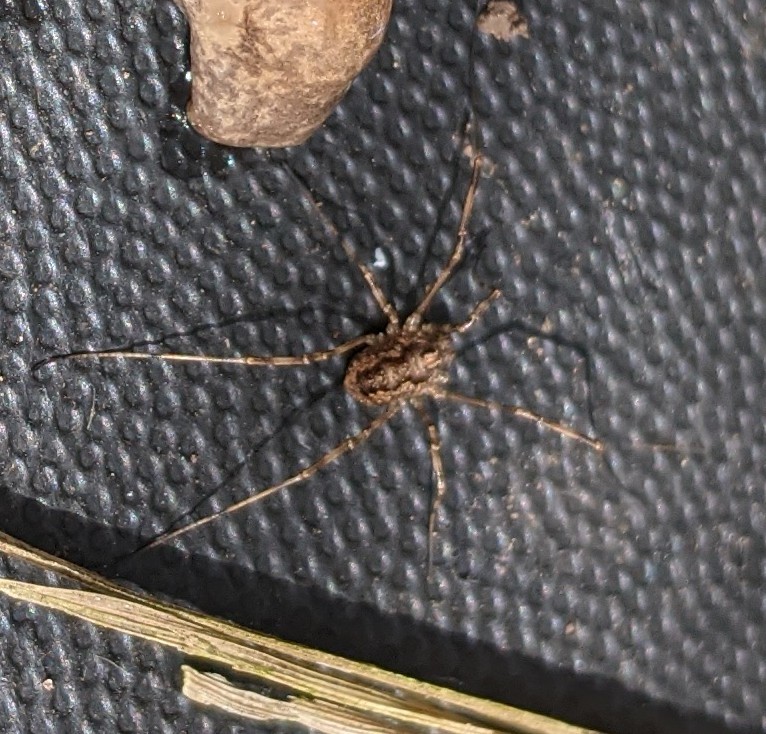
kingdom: Animalia
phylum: Arthropoda
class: Arachnida
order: Opiliones
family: Phalangiidae
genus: Rilaena
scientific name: Rilaena triangularis
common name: Spring harvestman
